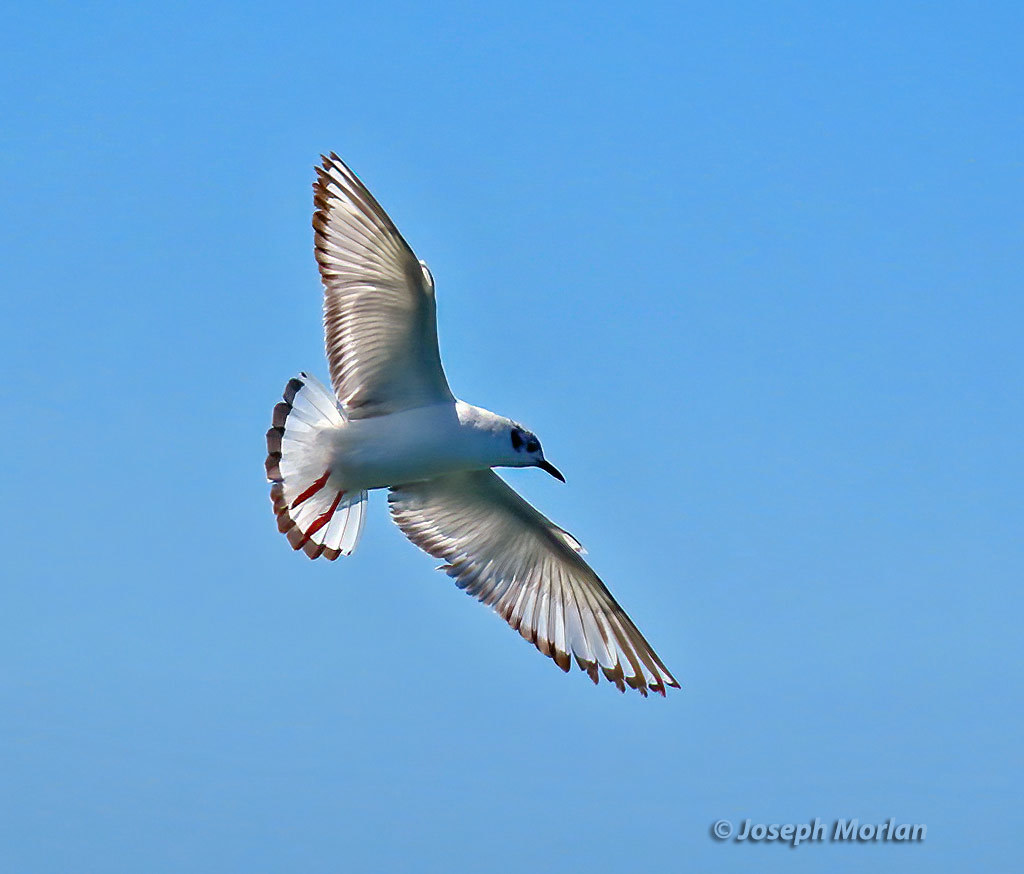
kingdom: Animalia
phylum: Chordata
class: Aves
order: Charadriiformes
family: Laridae
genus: Chroicocephalus
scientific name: Chroicocephalus philadelphia
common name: Bonaparte's gull
